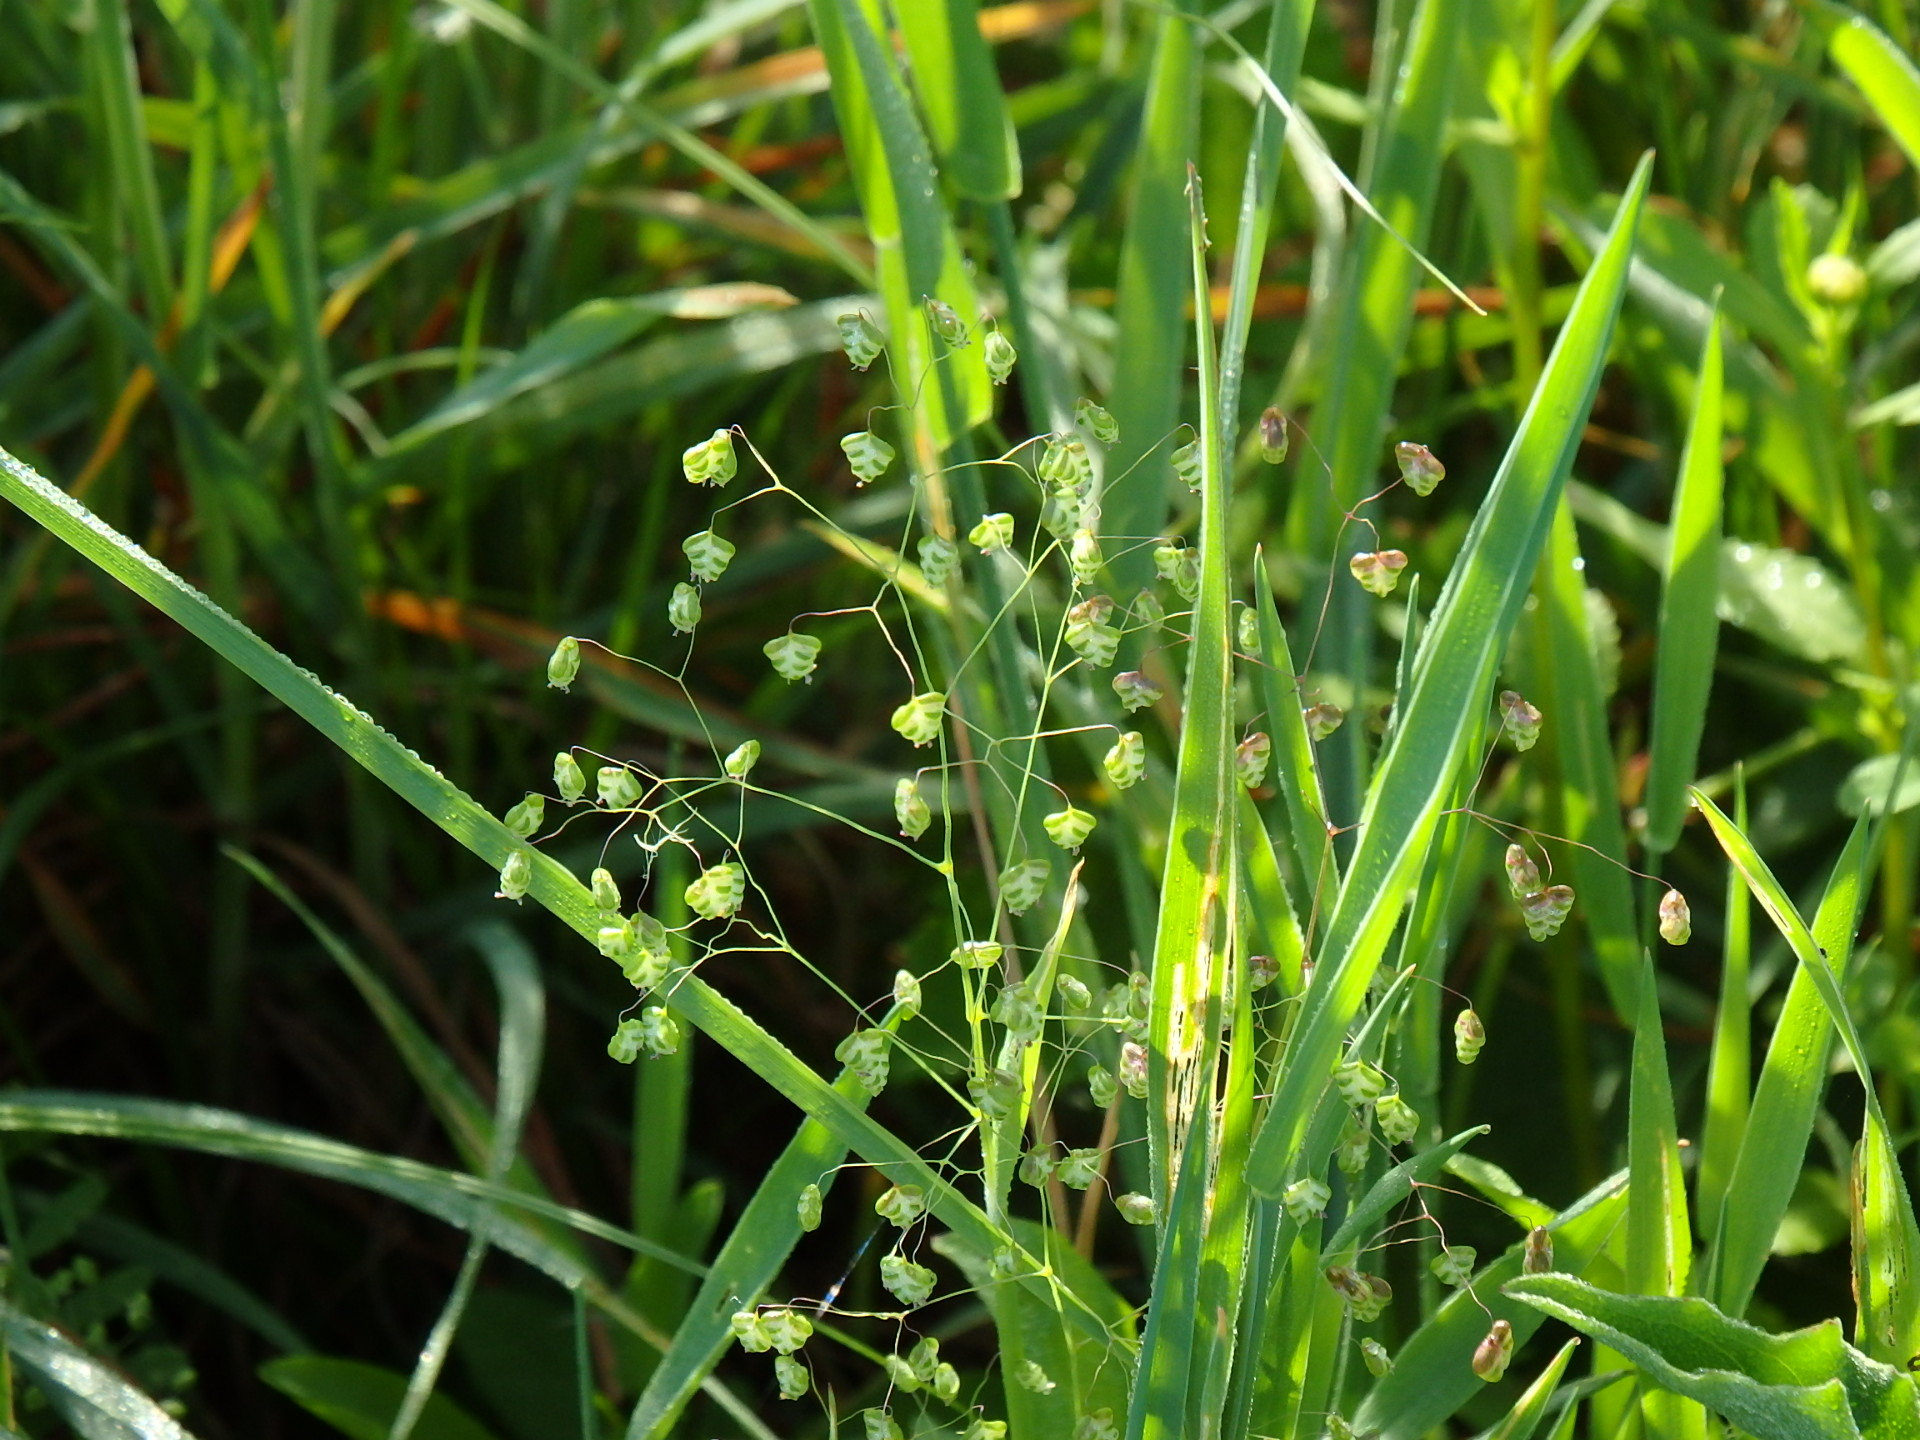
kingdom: Plantae
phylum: Tracheophyta
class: Liliopsida
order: Poales
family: Poaceae
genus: Briza
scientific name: Briza minor
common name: Lesser quaking-grass
